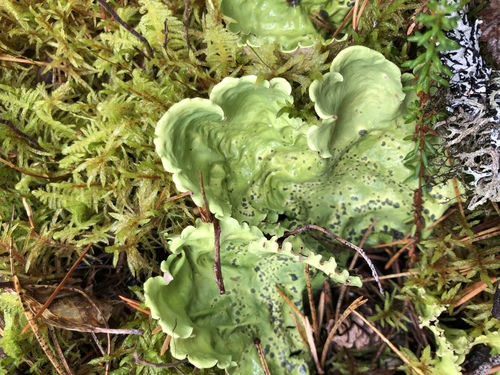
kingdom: Fungi
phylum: Ascomycota
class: Lecanoromycetes
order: Peltigerales
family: Nephromataceae
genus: Nephroma
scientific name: Nephroma arcticum
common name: Arctic kidney-lichen
